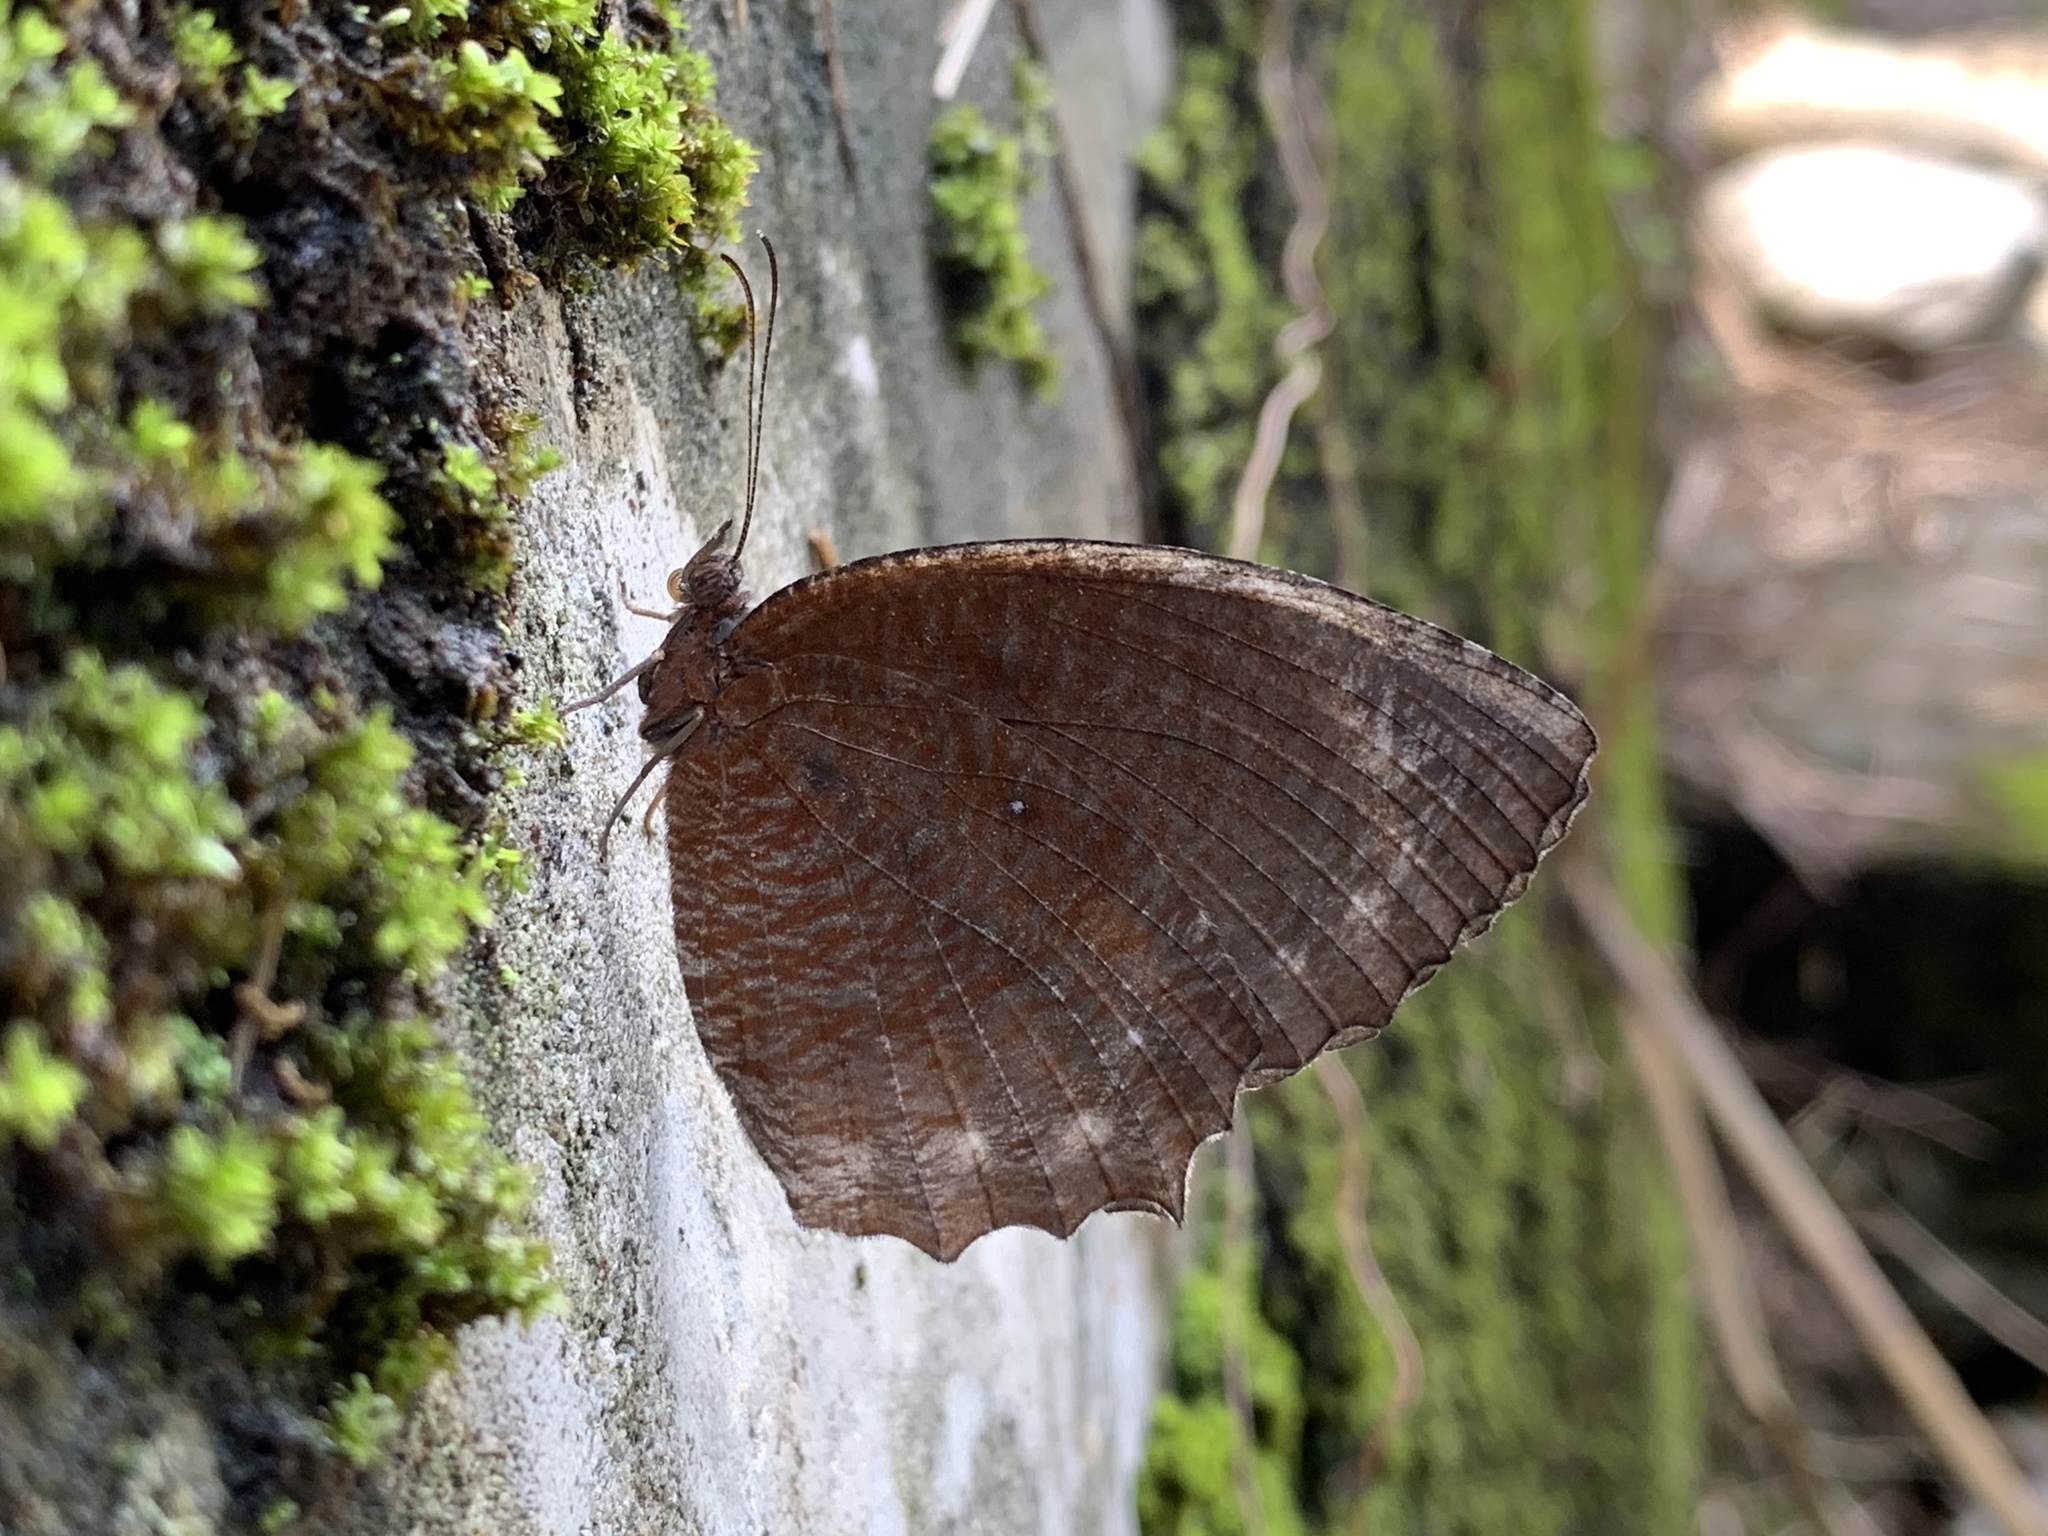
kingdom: Animalia
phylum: Arthropoda
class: Insecta
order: Lepidoptera
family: Nymphalidae
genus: Elymnias
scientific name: Elymnias hypermnestra
